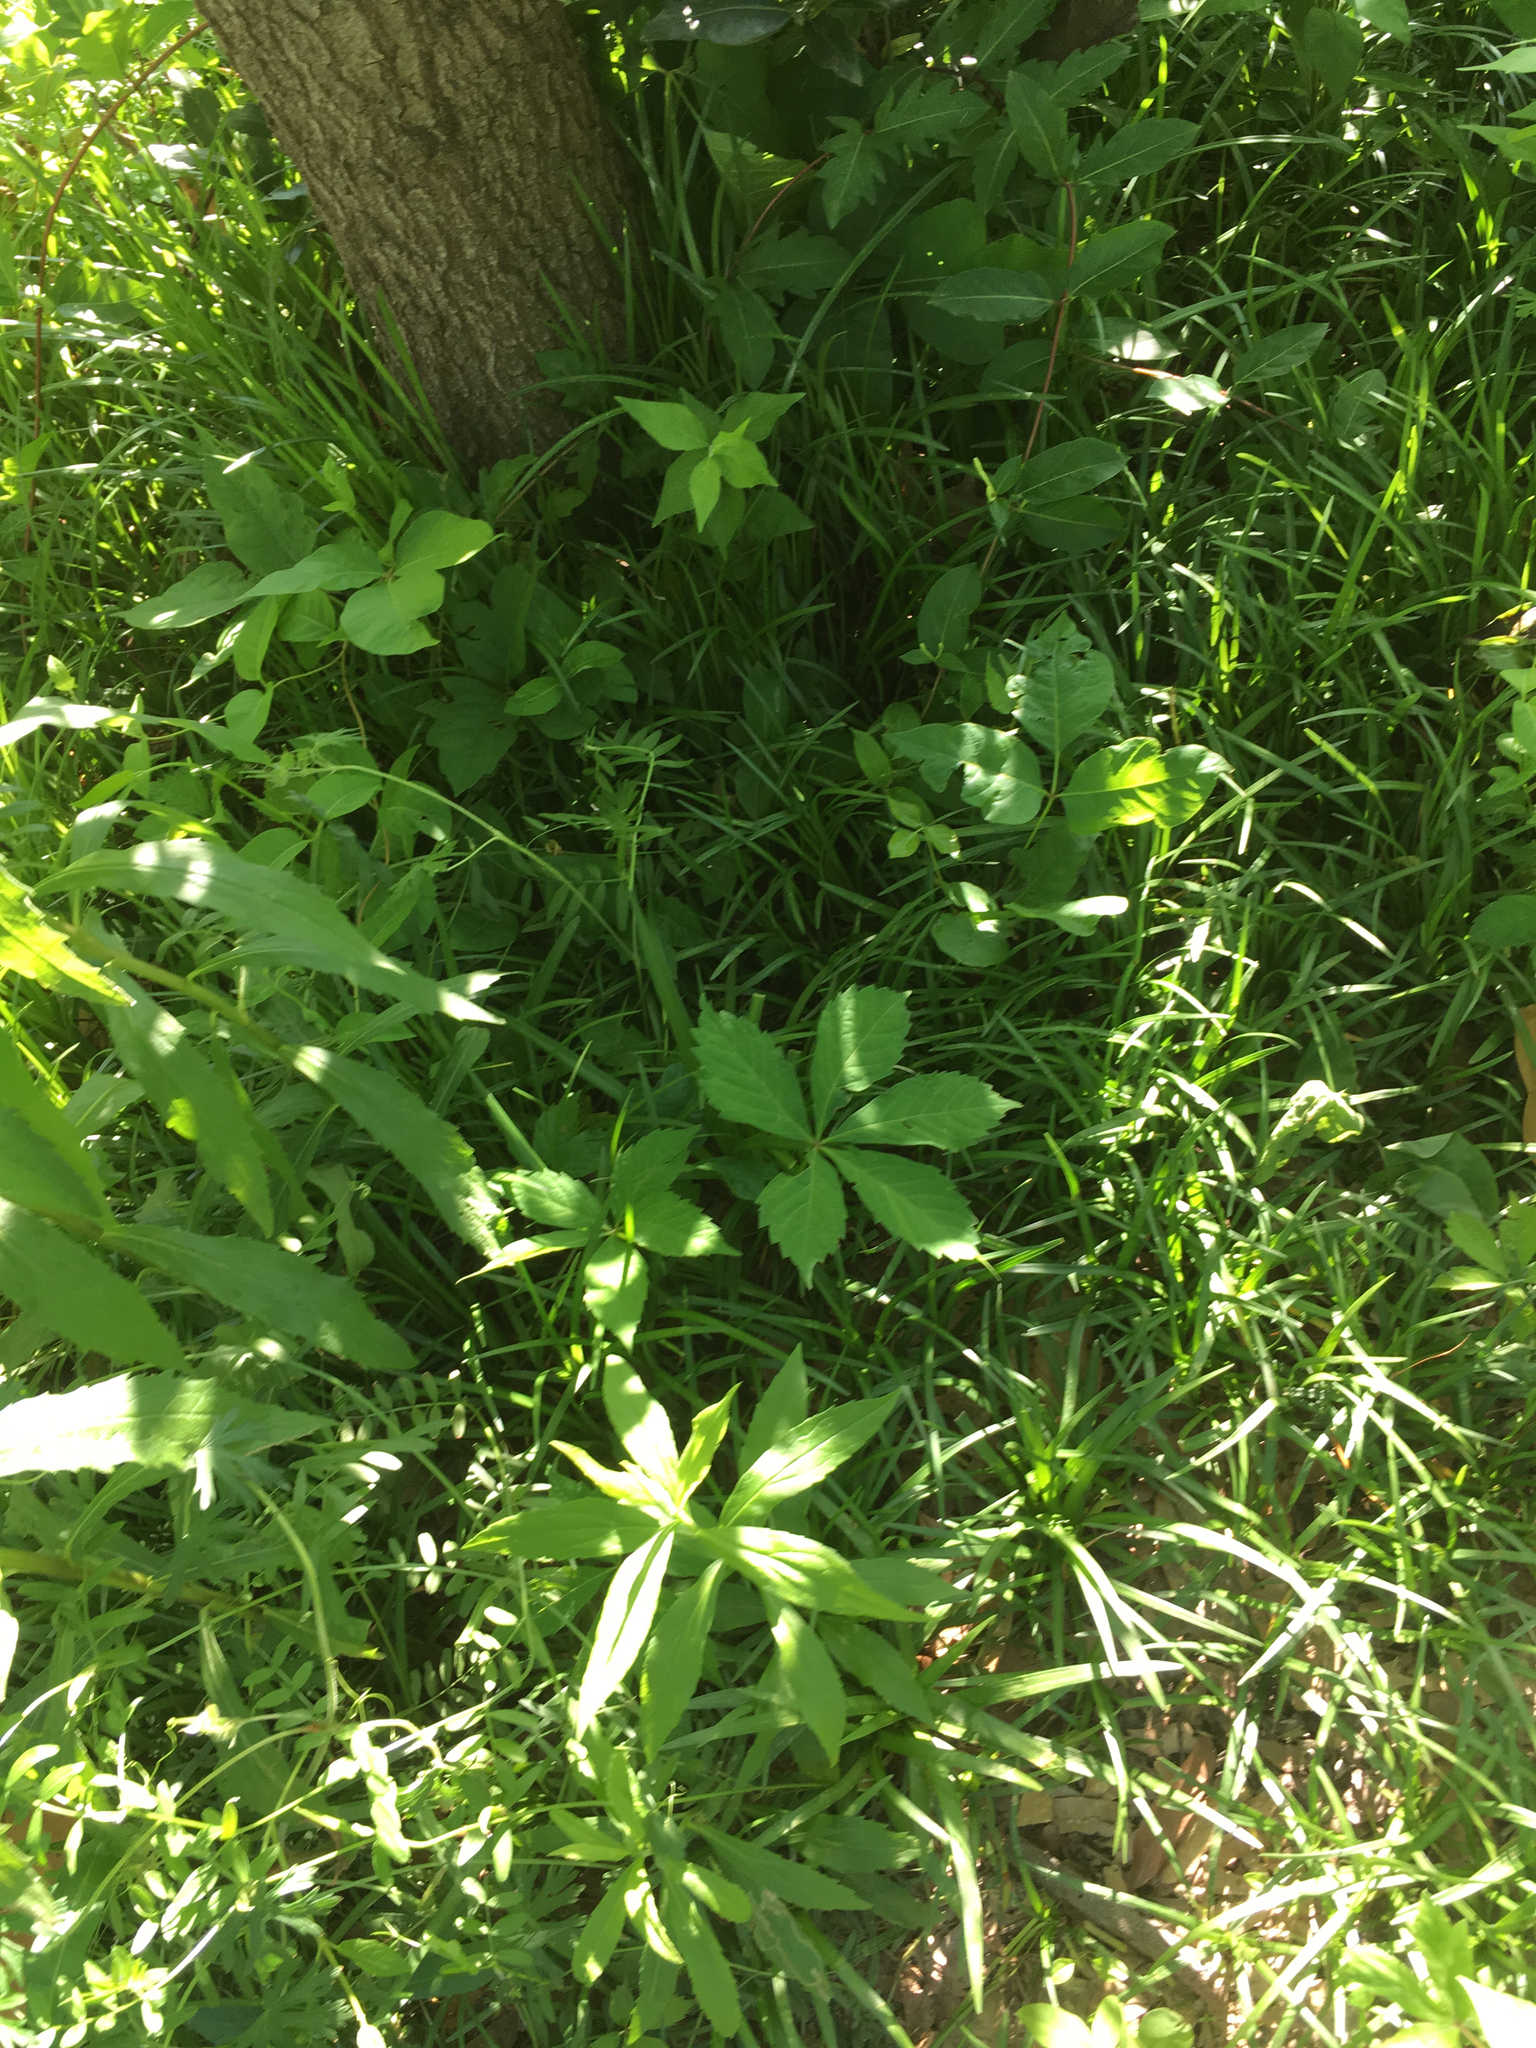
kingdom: Plantae
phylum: Tracheophyta
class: Magnoliopsida
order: Vitales
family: Vitaceae
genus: Parthenocissus
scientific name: Parthenocissus quinquefolia
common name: Virginia-creeper
